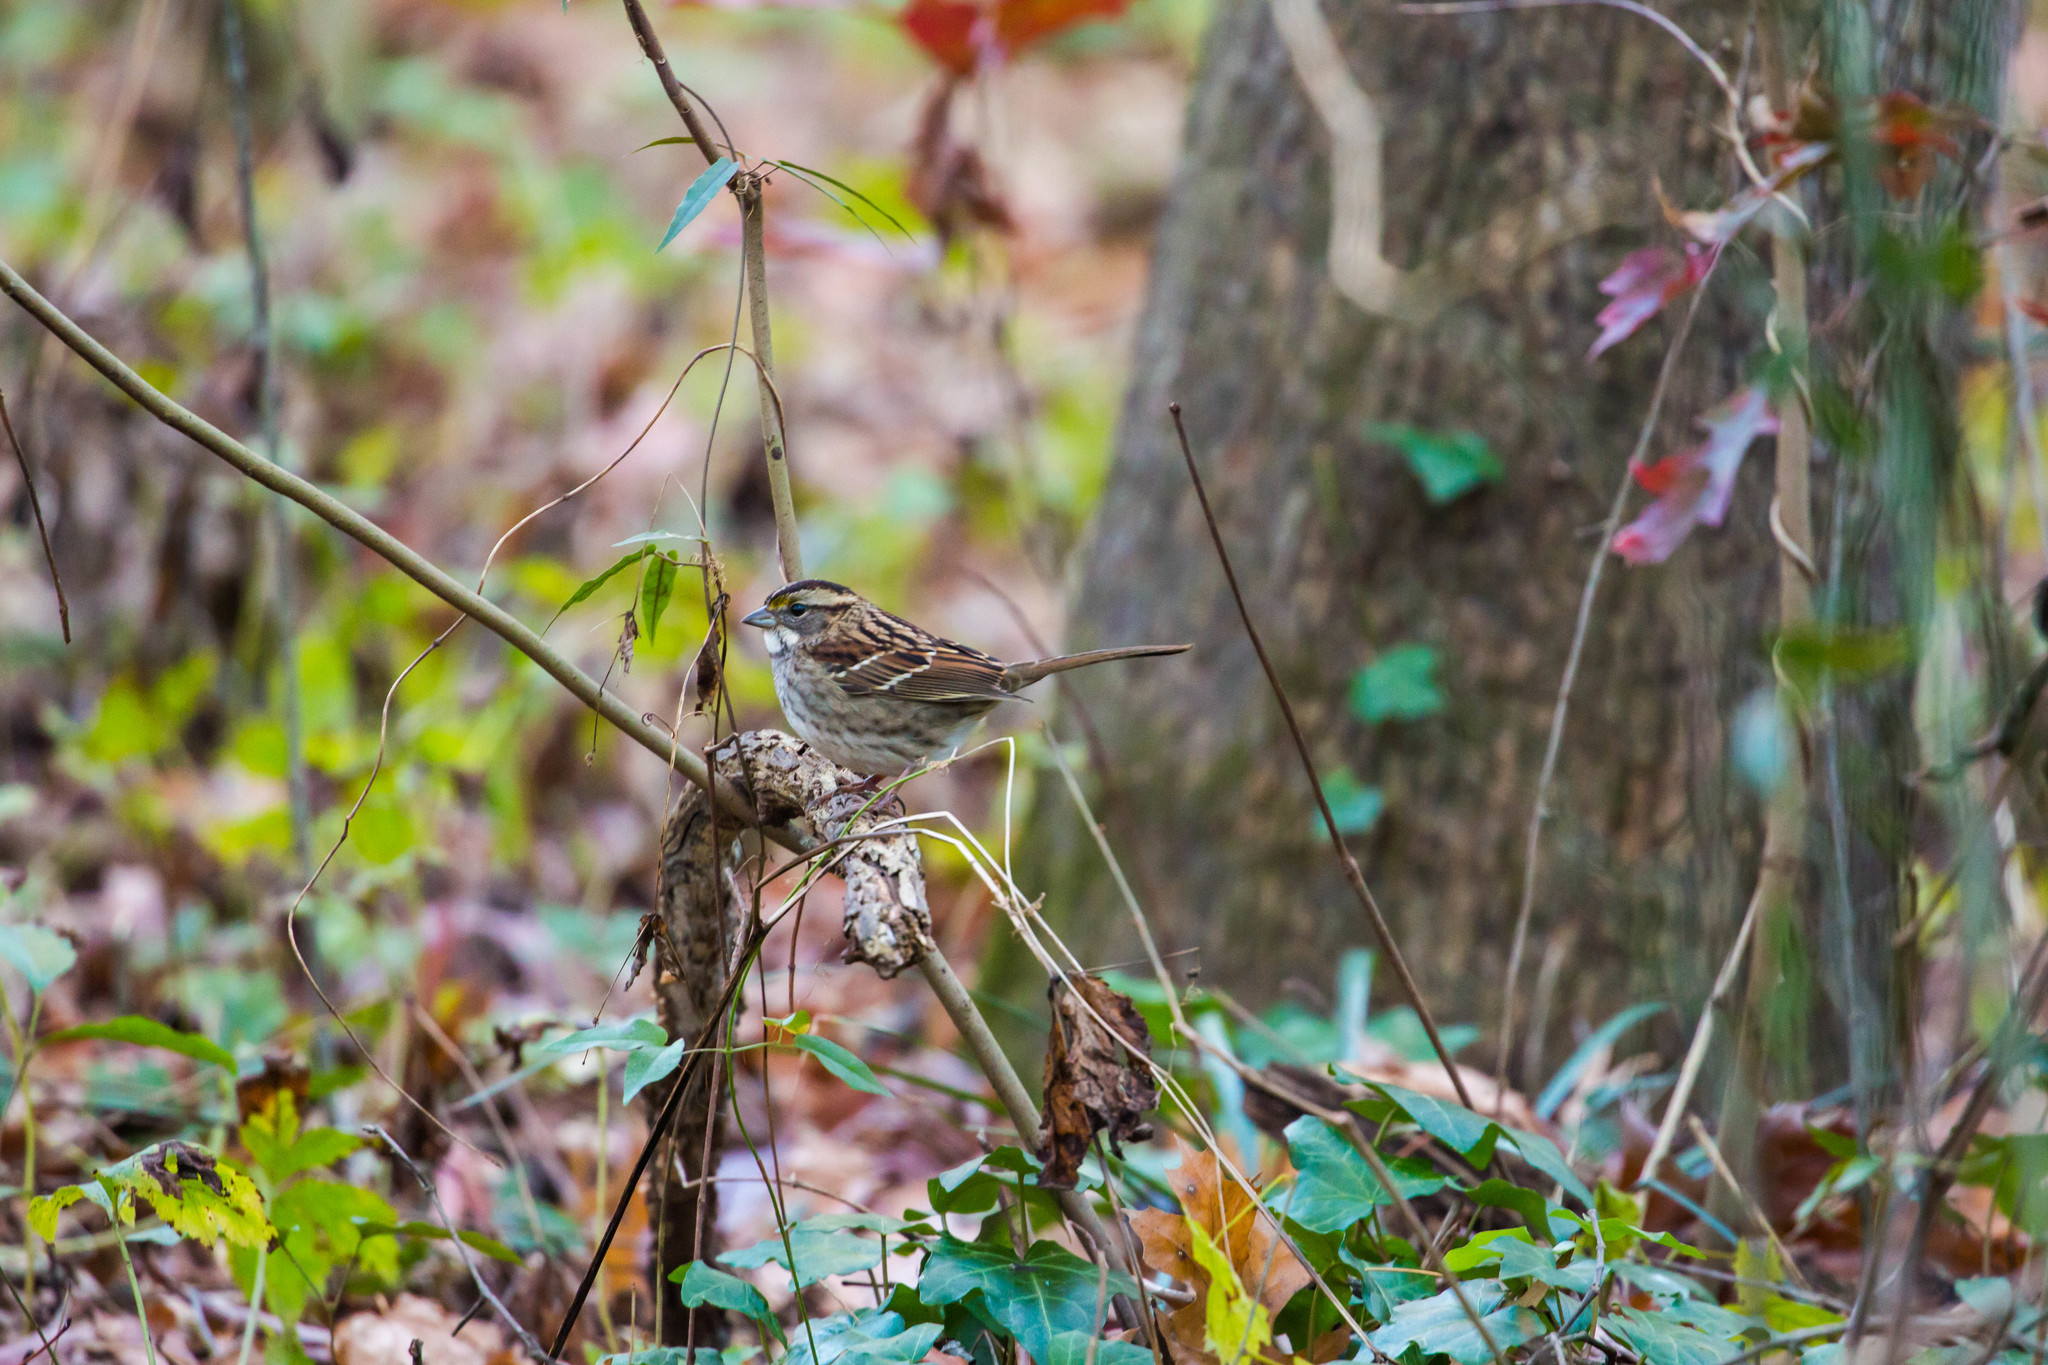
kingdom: Animalia
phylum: Chordata
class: Aves
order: Passeriformes
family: Passerellidae
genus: Zonotrichia
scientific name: Zonotrichia albicollis
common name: White-throated sparrow
